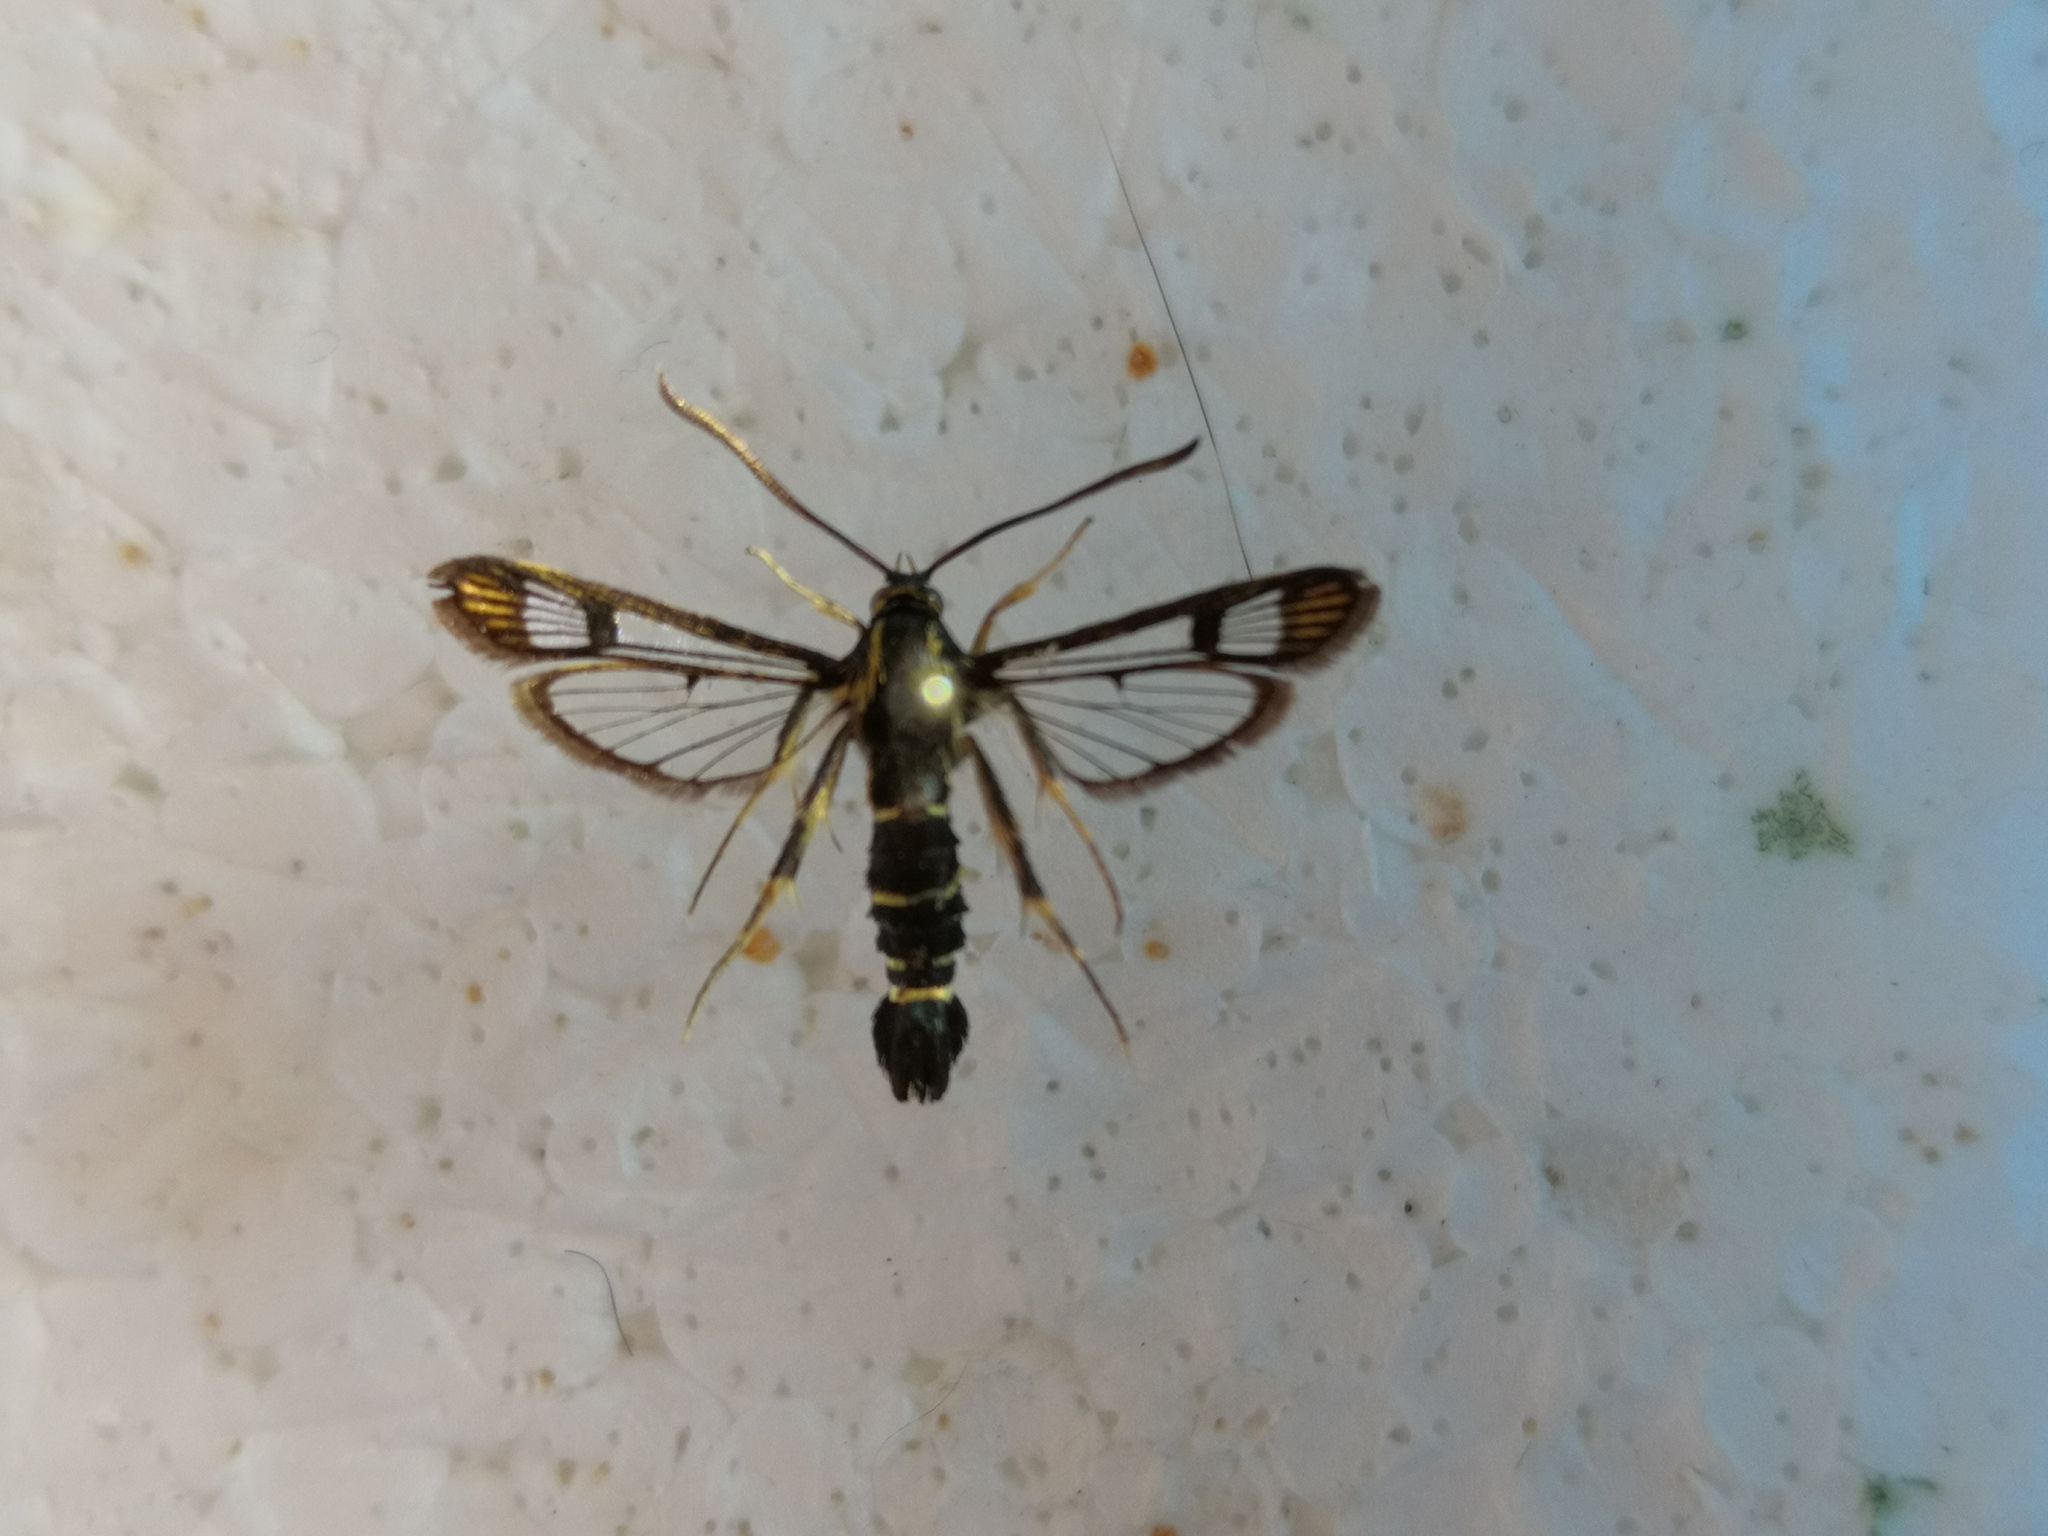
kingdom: Animalia
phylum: Arthropoda
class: Insecta
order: Lepidoptera
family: Sesiidae
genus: Synanthedon
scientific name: Synanthedon tipuliformis
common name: Currant clearwing
